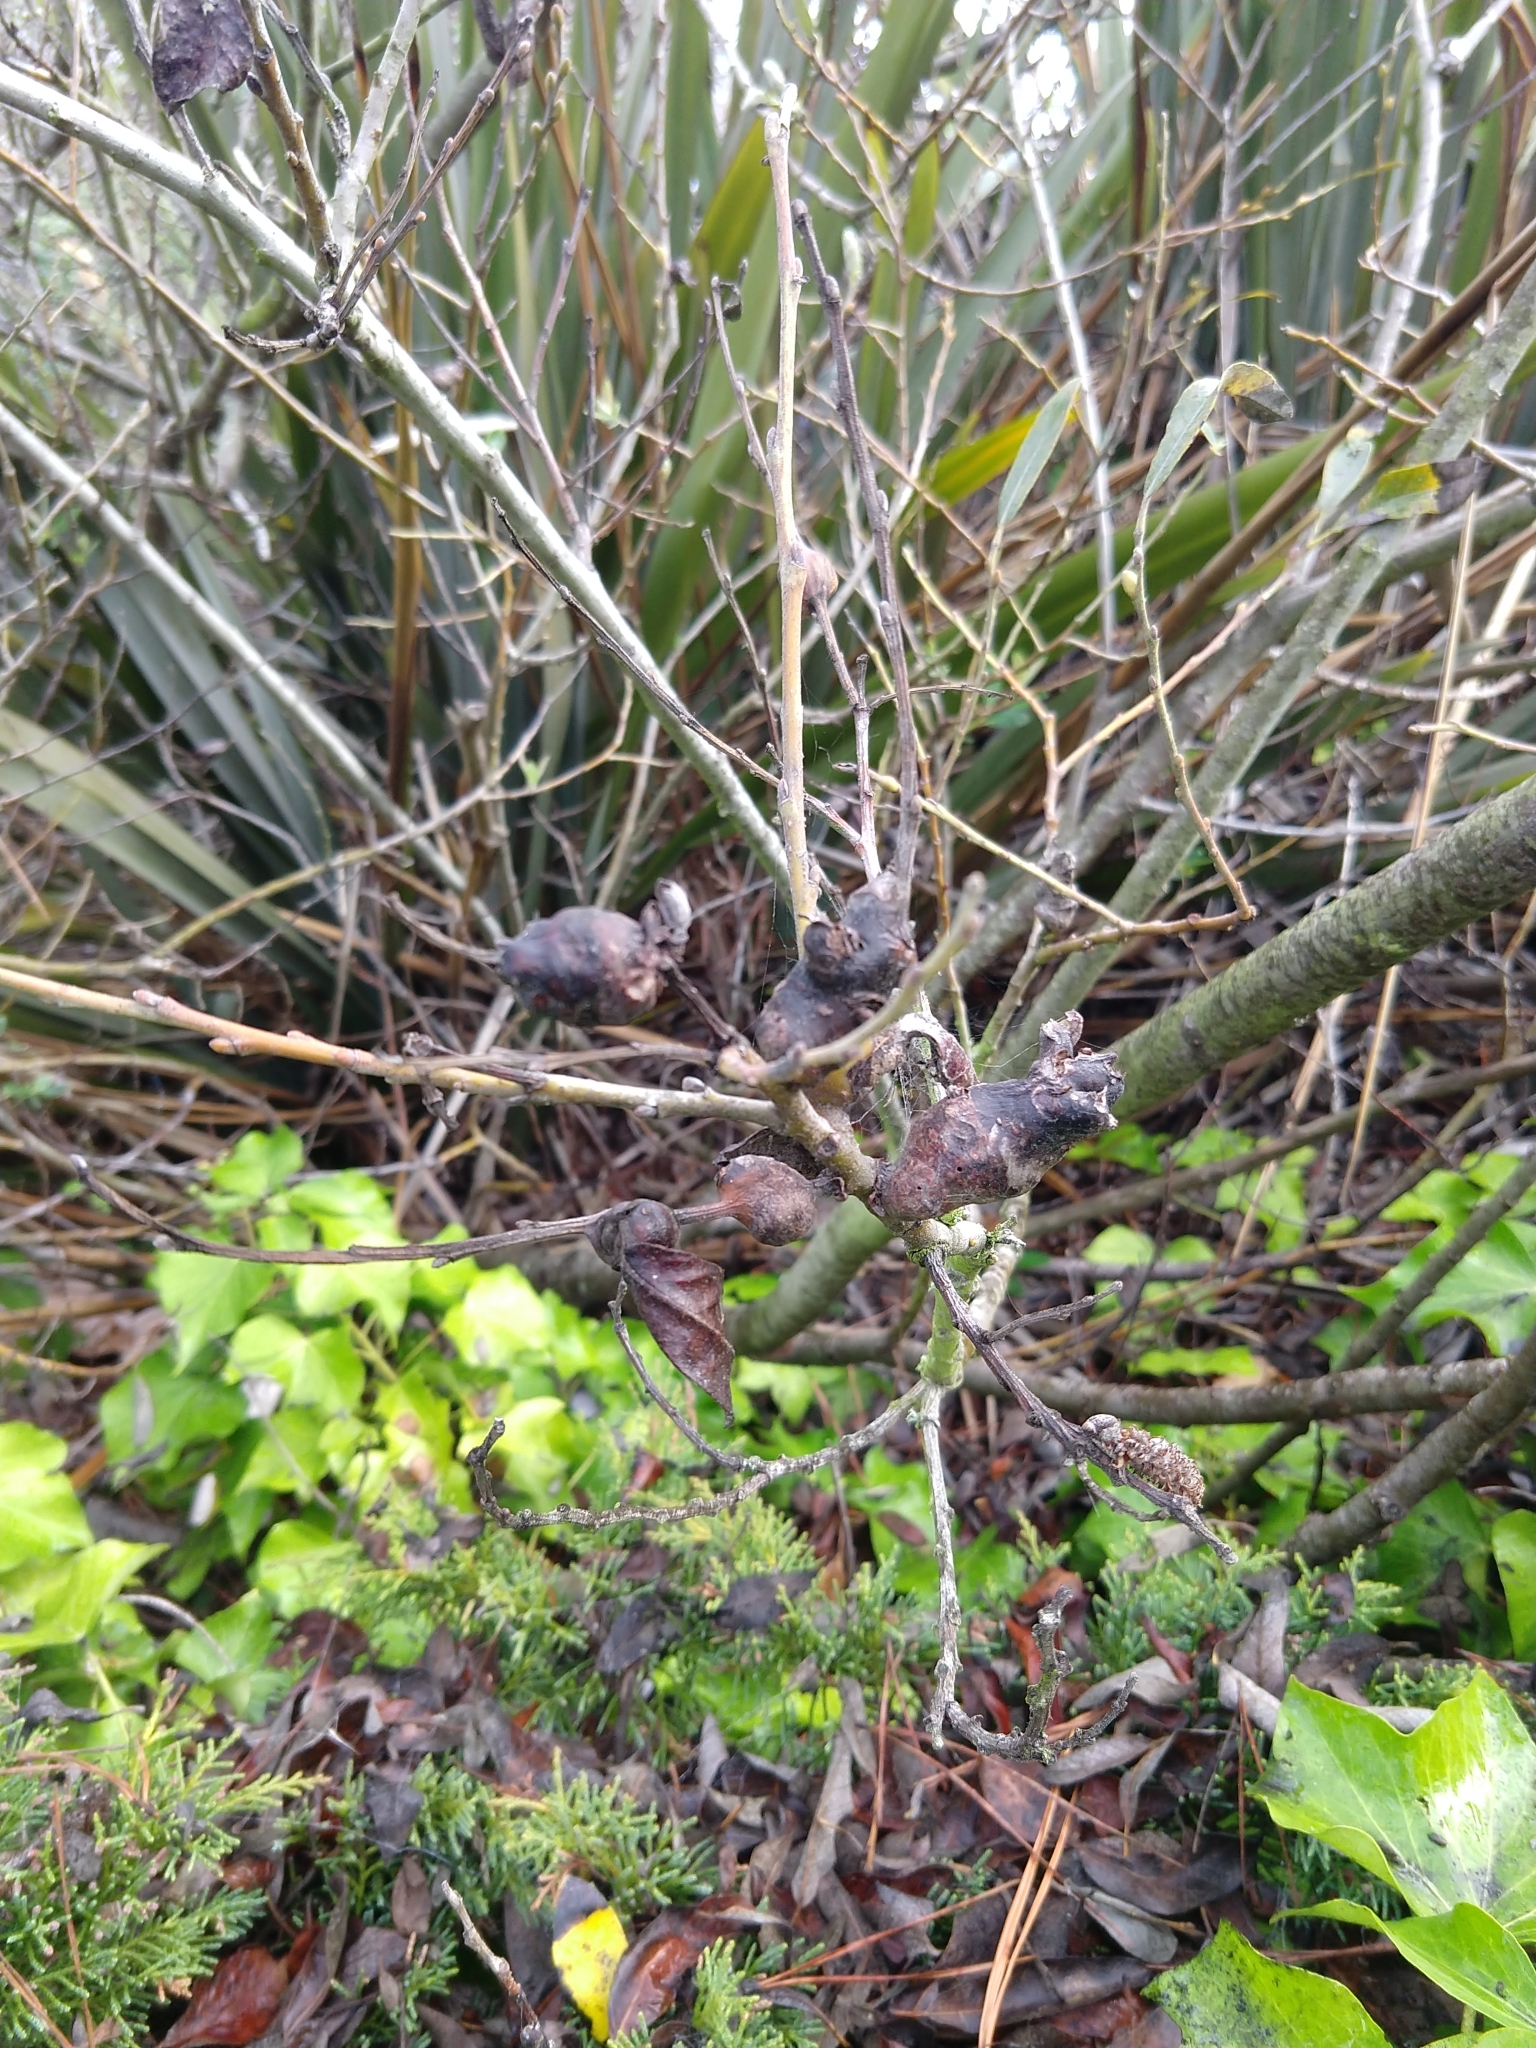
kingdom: Animalia
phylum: Arthropoda
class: Insecta
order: Diptera
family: Cecidomyiidae
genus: Rabdophaga
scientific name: Rabdophaga salicisbatatas
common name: Potato gall midge
